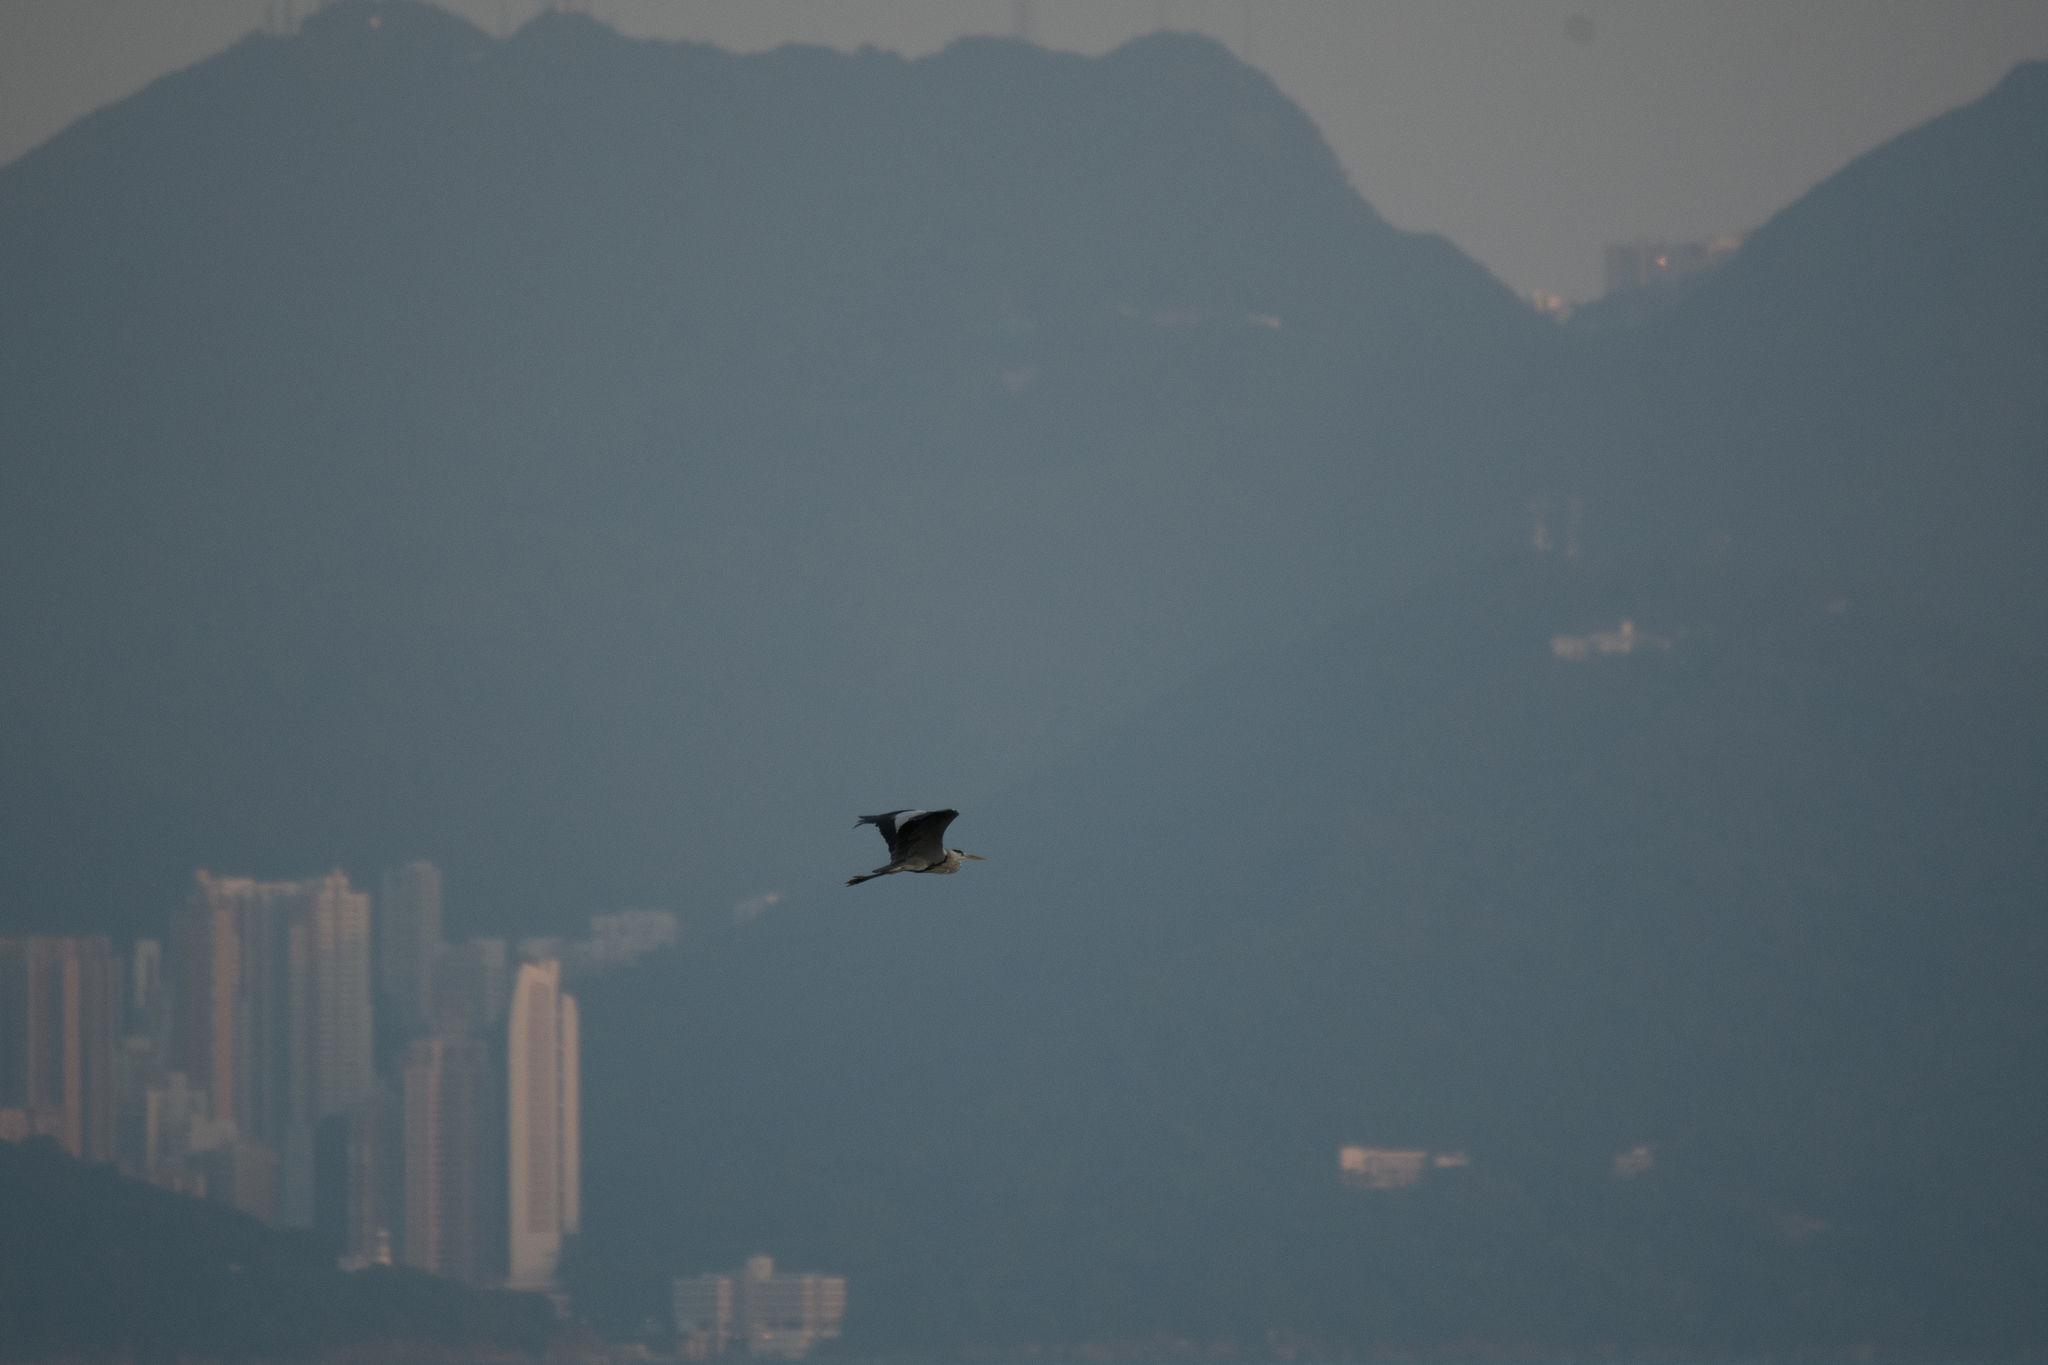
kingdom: Animalia
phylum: Chordata
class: Aves
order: Pelecaniformes
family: Ardeidae
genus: Ardea
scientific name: Ardea cinerea
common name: Grey heron
